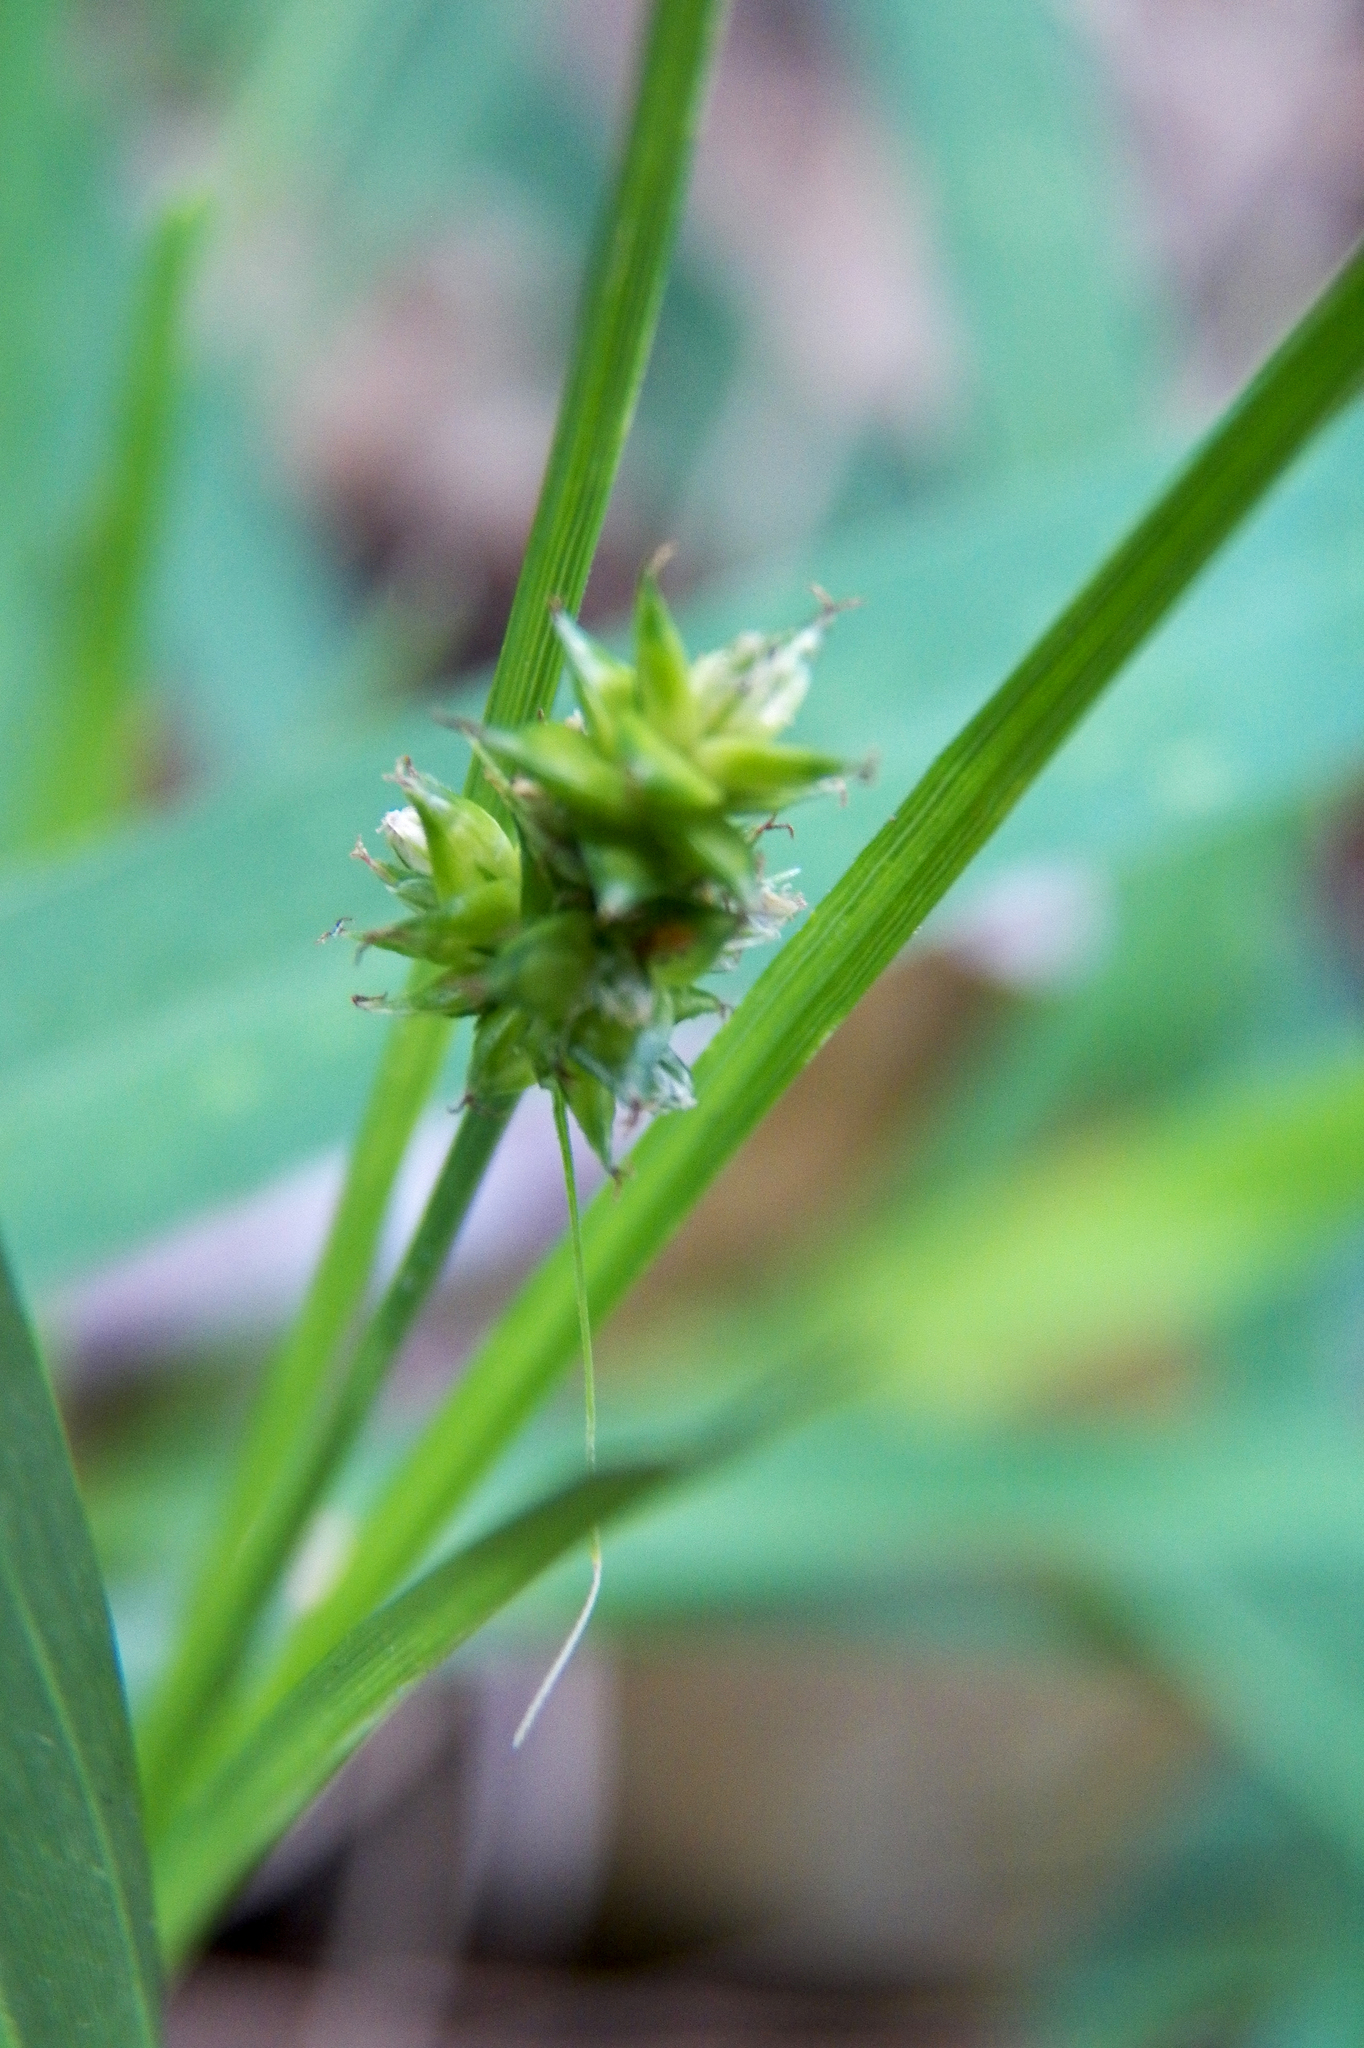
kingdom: Plantae
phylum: Tracheophyta
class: Liliopsida
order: Poales
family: Cyperaceae
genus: Carex
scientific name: Carex leavenworthii
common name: Leavenworth's bracted sedge
